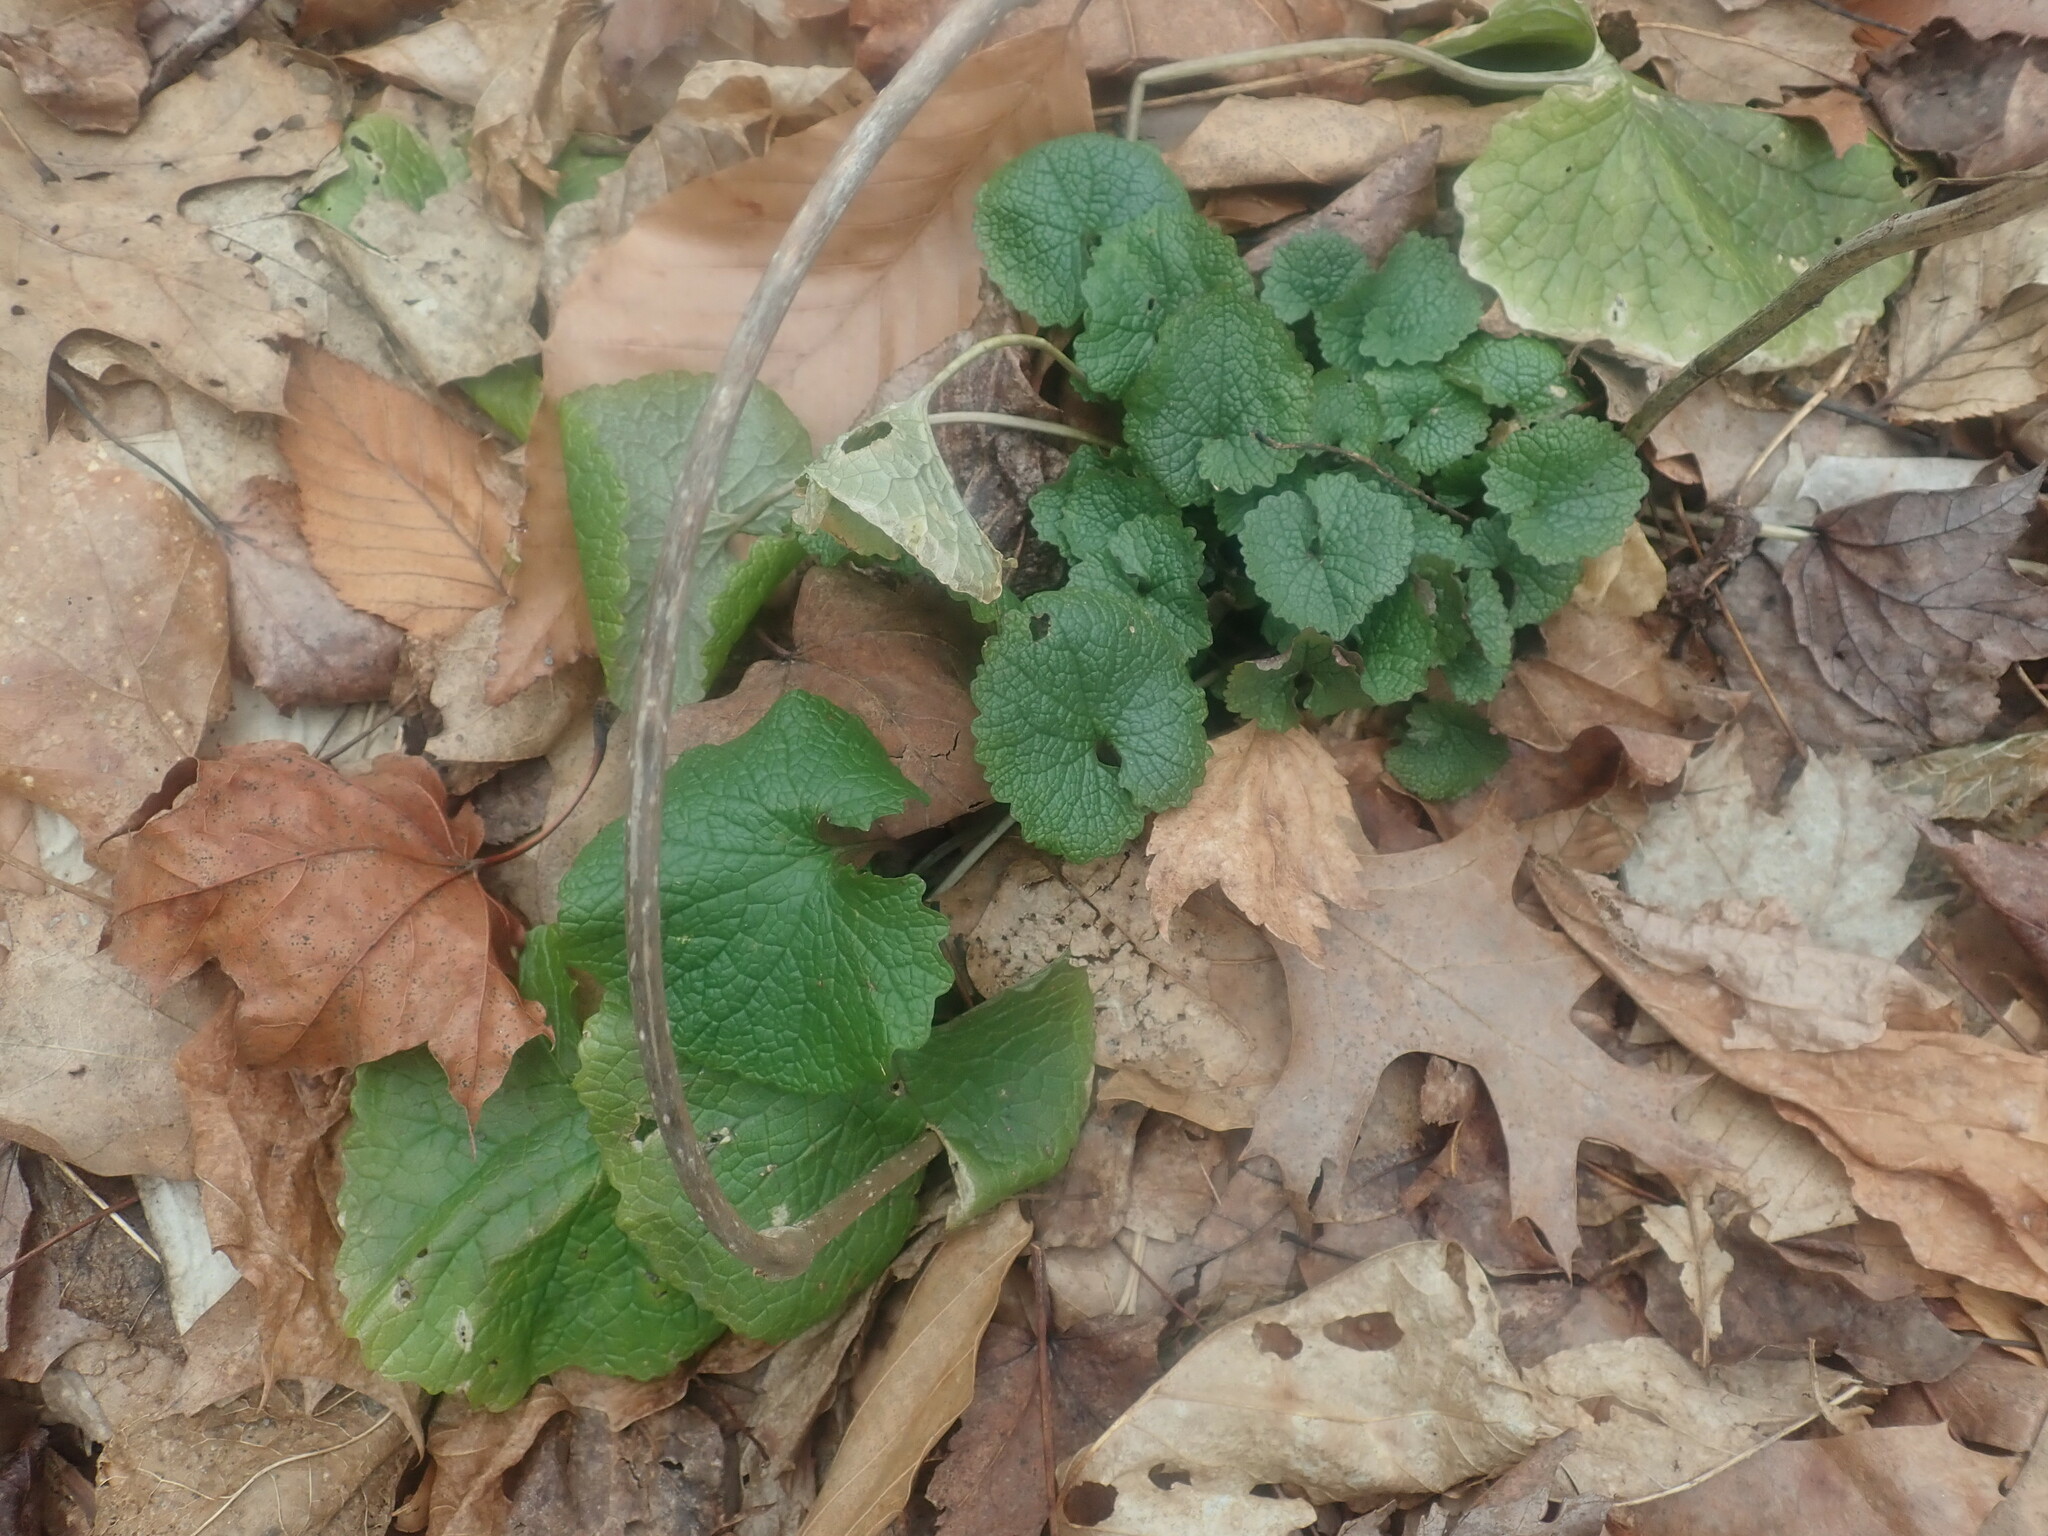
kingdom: Plantae
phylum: Tracheophyta
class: Magnoliopsida
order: Brassicales
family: Brassicaceae
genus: Alliaria
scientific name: Alliaria petiolata
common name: Garlic mustard
